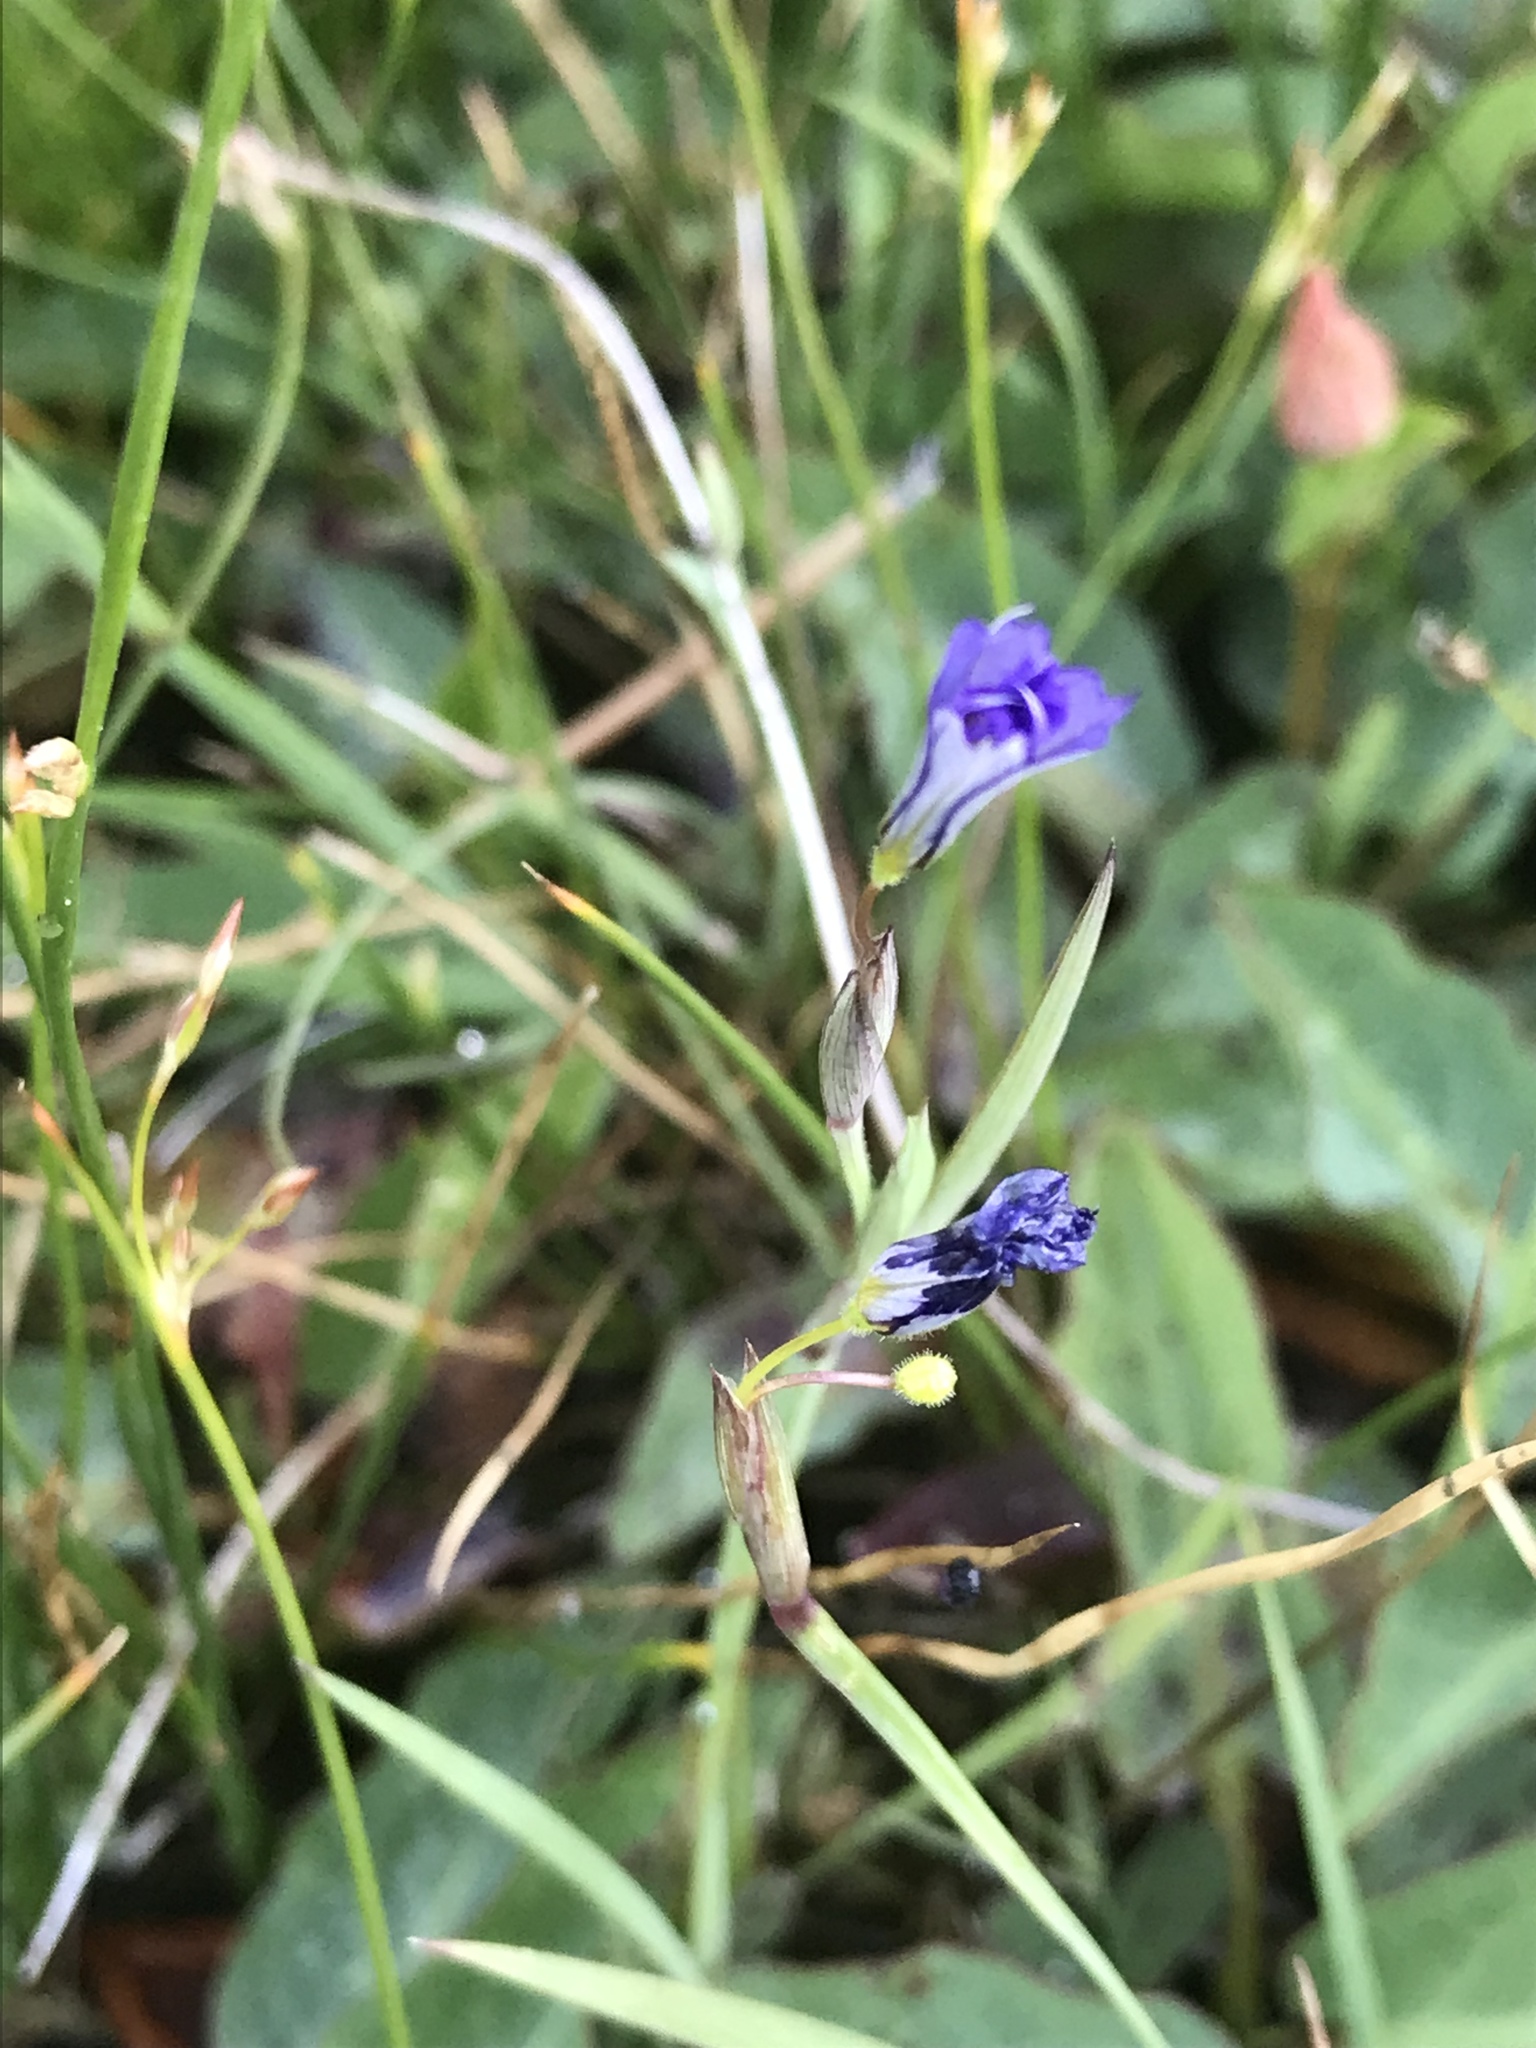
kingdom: Plantae
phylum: Tracheophyta
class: Liliopsida
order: Asparagales
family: Iridaceae
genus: Sisyrinchium
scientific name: Sisyrinchium idahoense
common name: Idaho blue-eyed-grass
